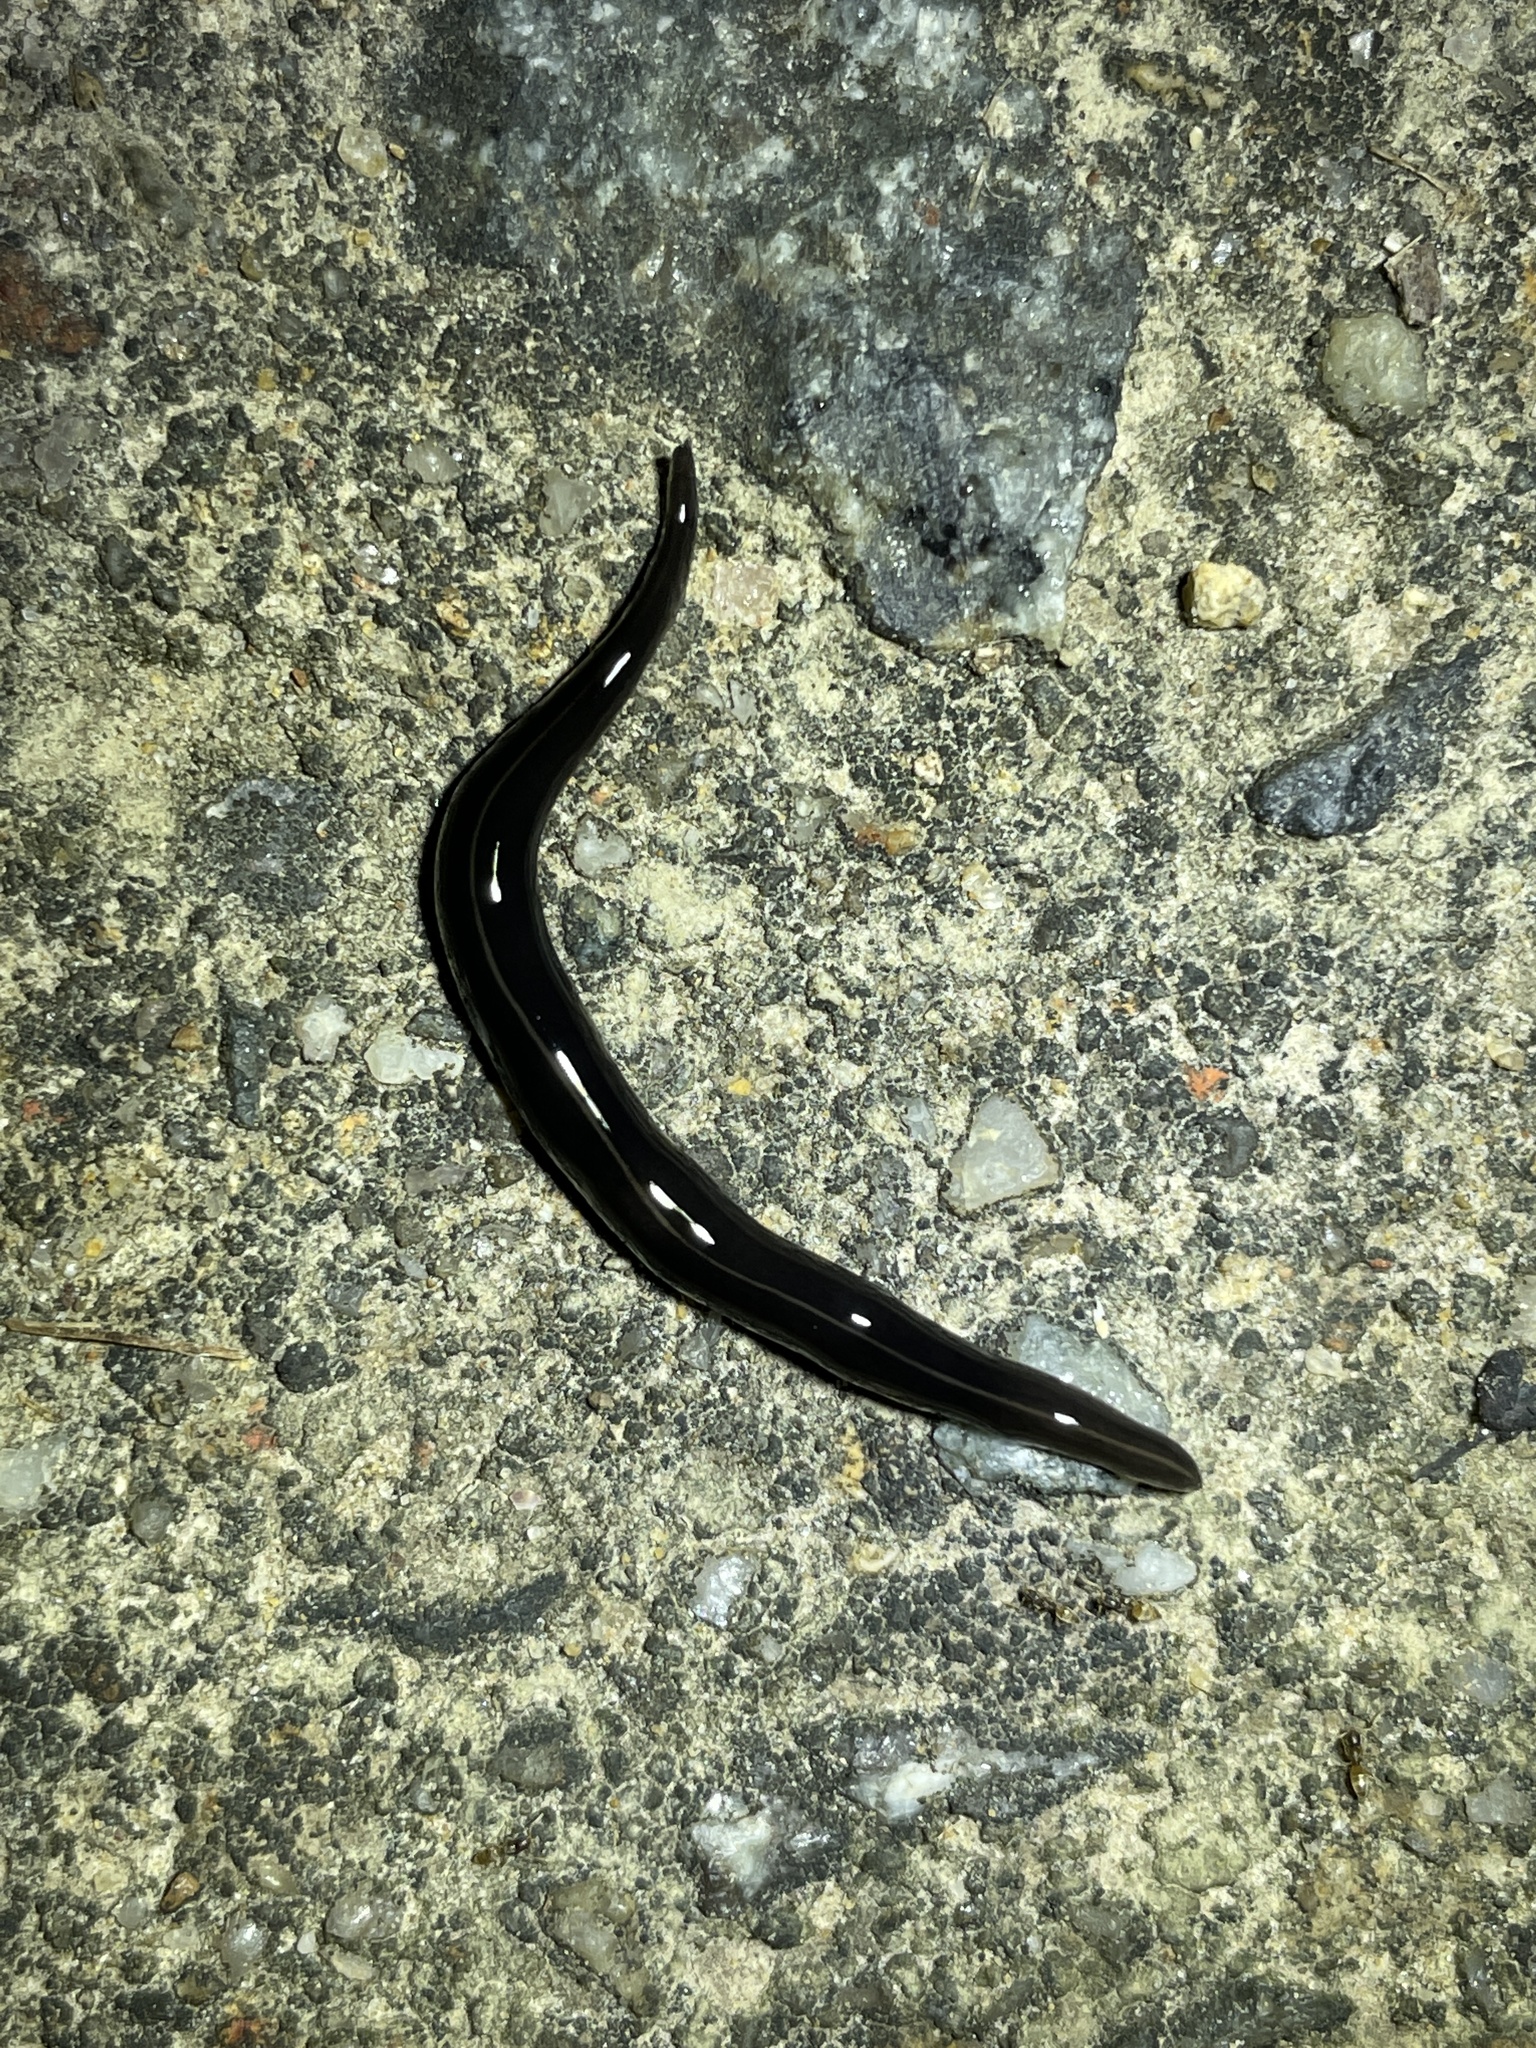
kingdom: Animalia
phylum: Platyhelminthes
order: Tricladida
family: Geoplanidae
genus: Platydemus
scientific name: Platydemus manokwari
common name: New guinea flatworm
